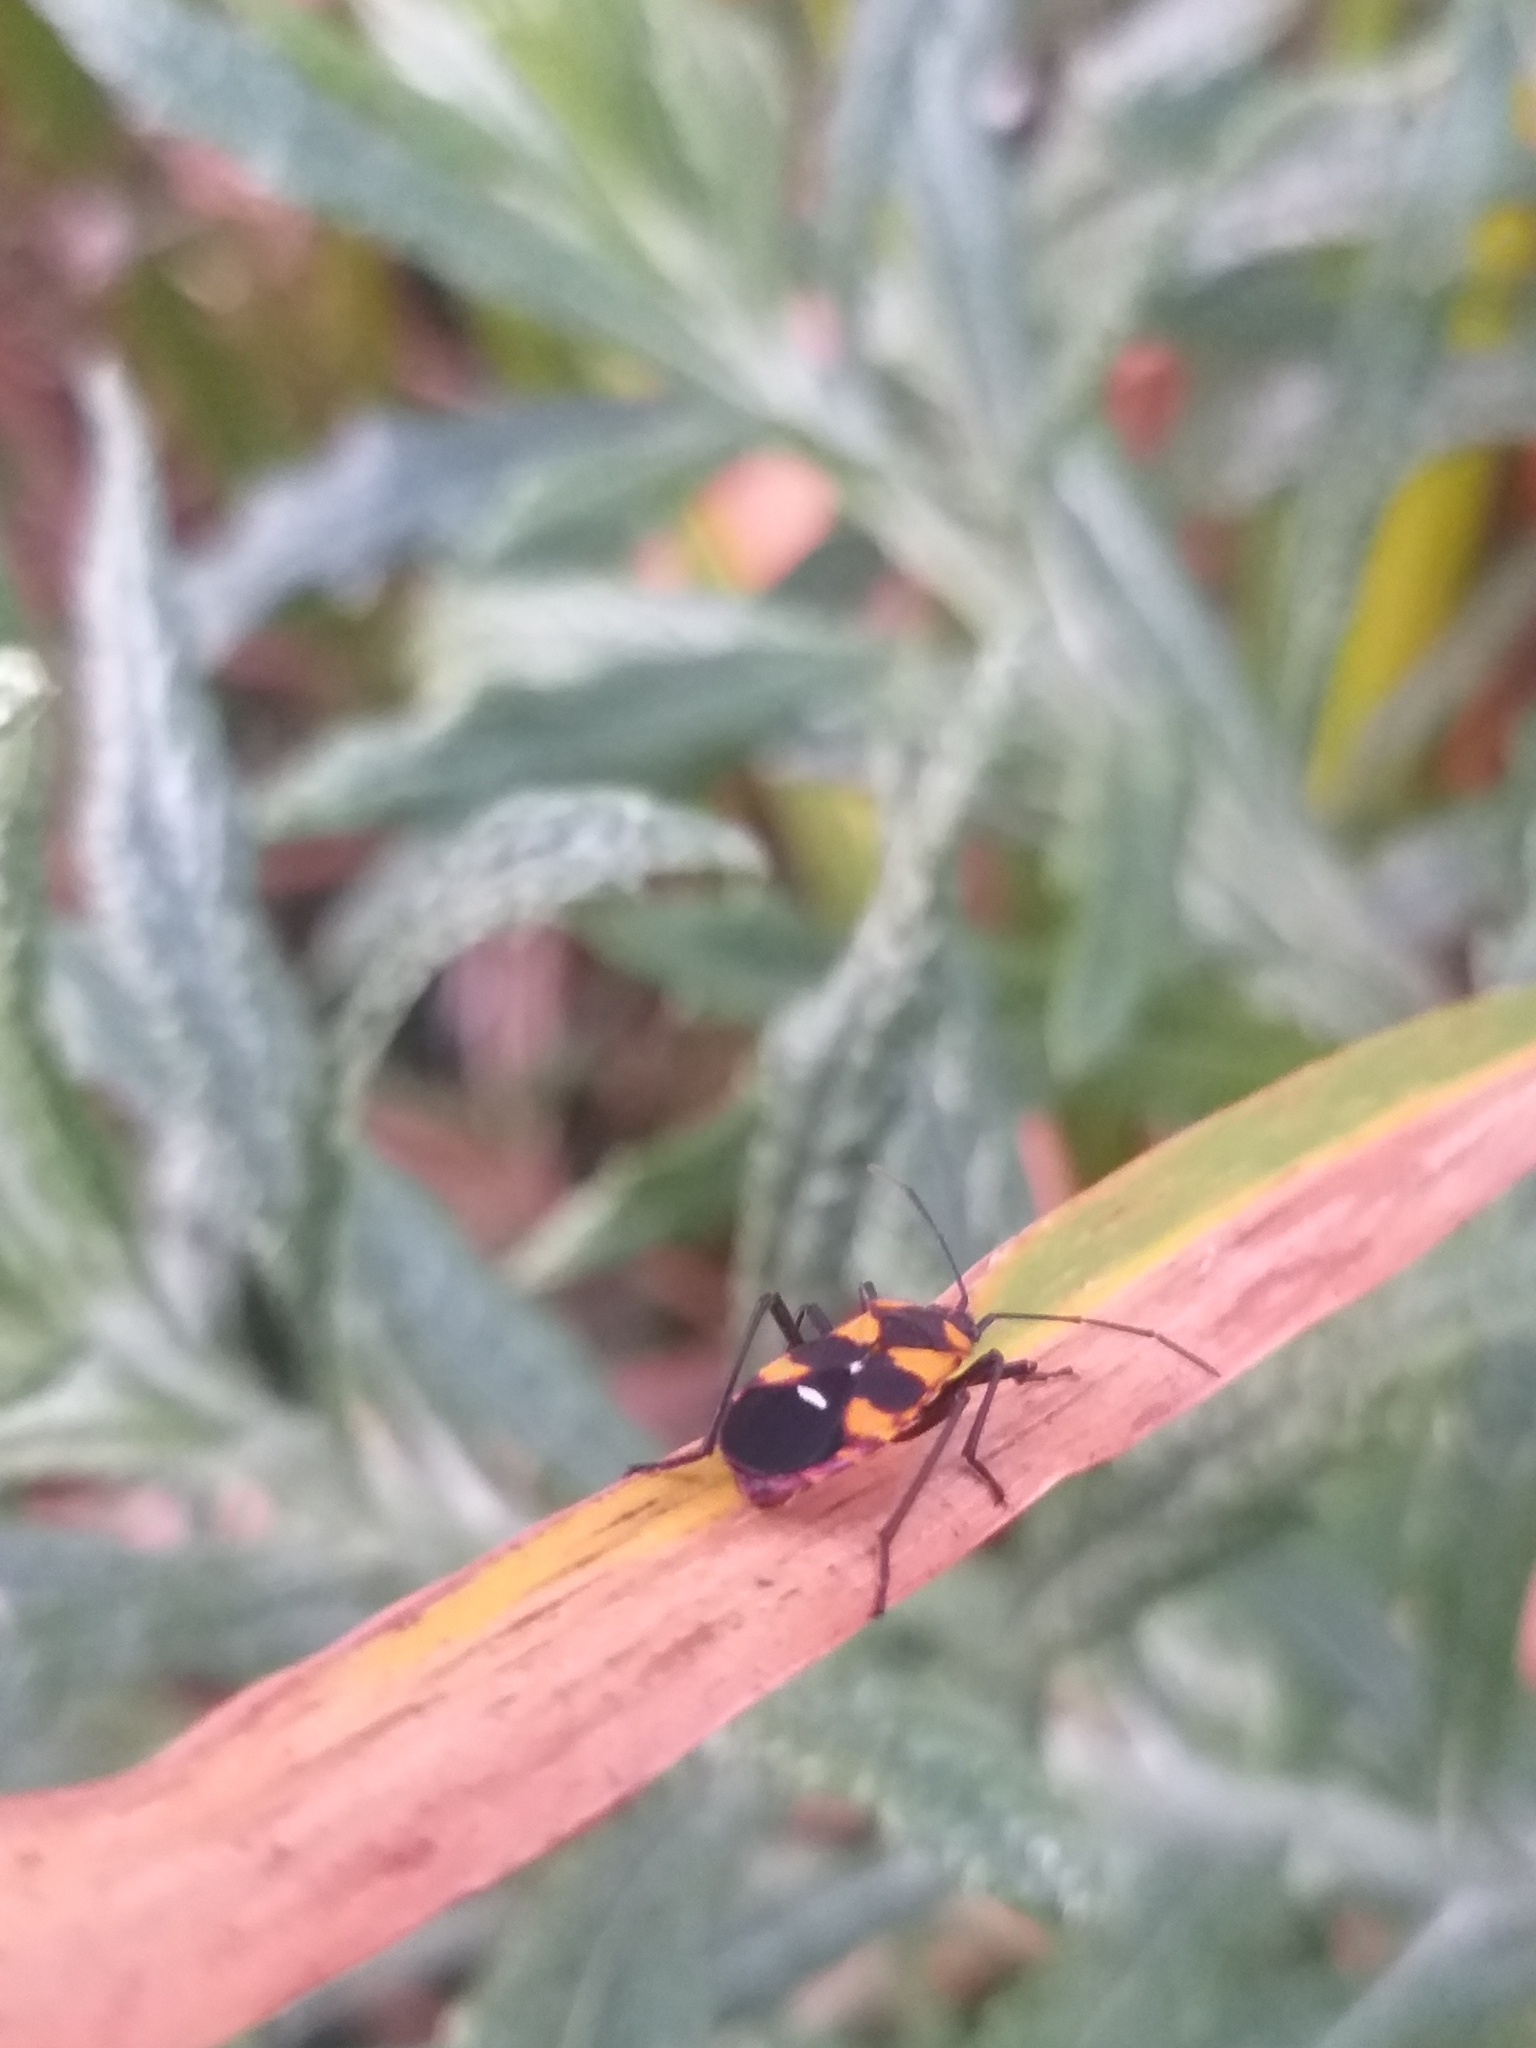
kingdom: Animalia
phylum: Arthropoda
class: Insecta
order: Hemiptera
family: Lygaeidae
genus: Oncopeltus
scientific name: Oncopeltus famelicus
